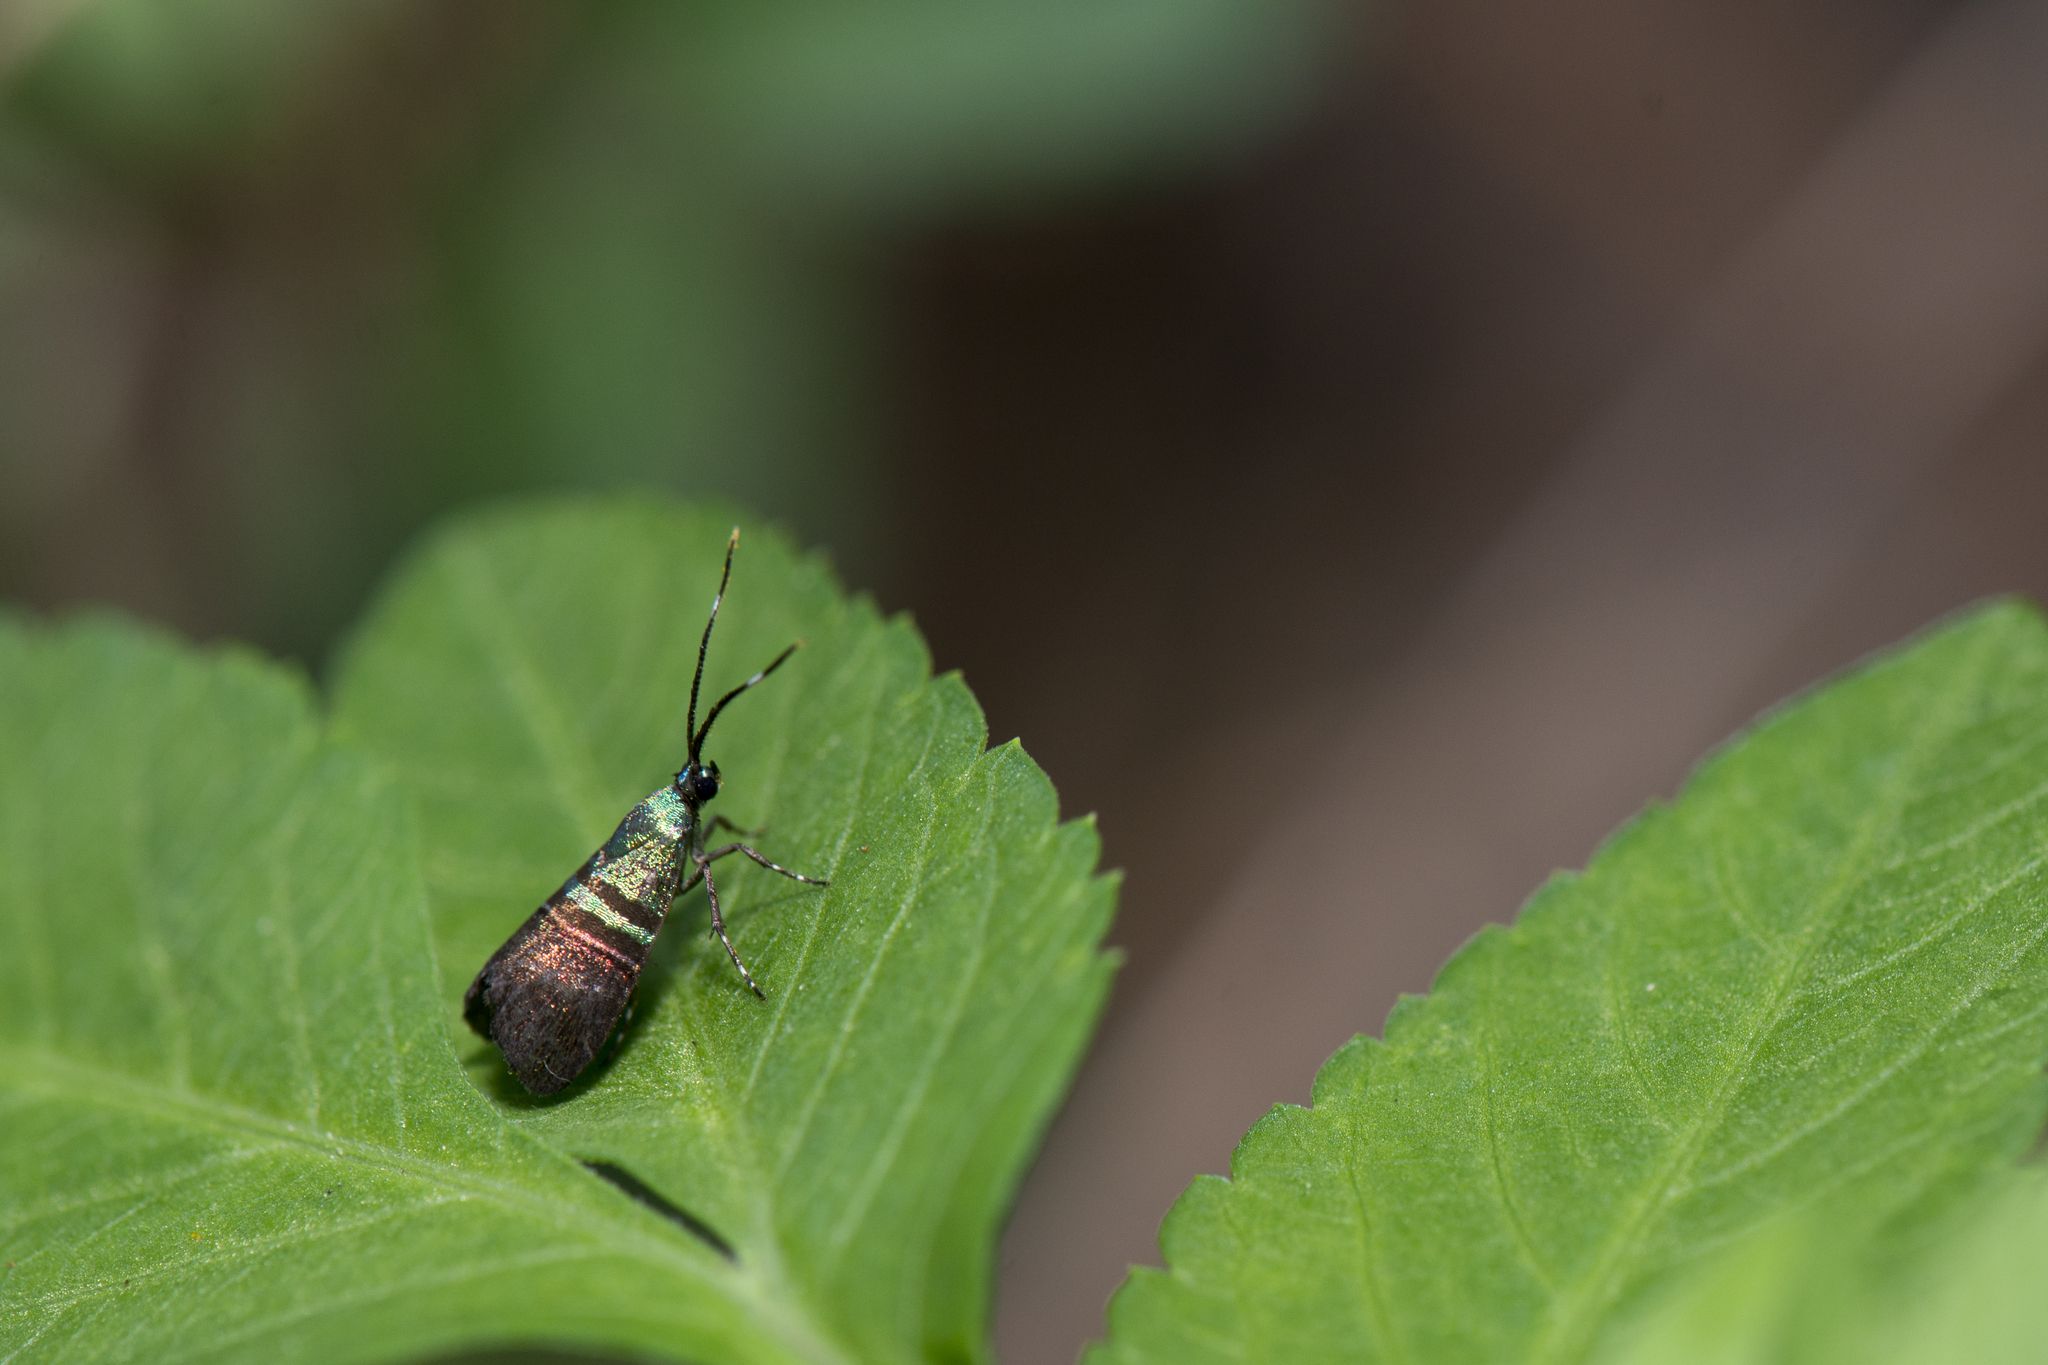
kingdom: Animalia
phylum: Arthropoda
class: Insecta
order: Lepidoptera
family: Choreutidae
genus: Saptha
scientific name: Saptha pretiosa
